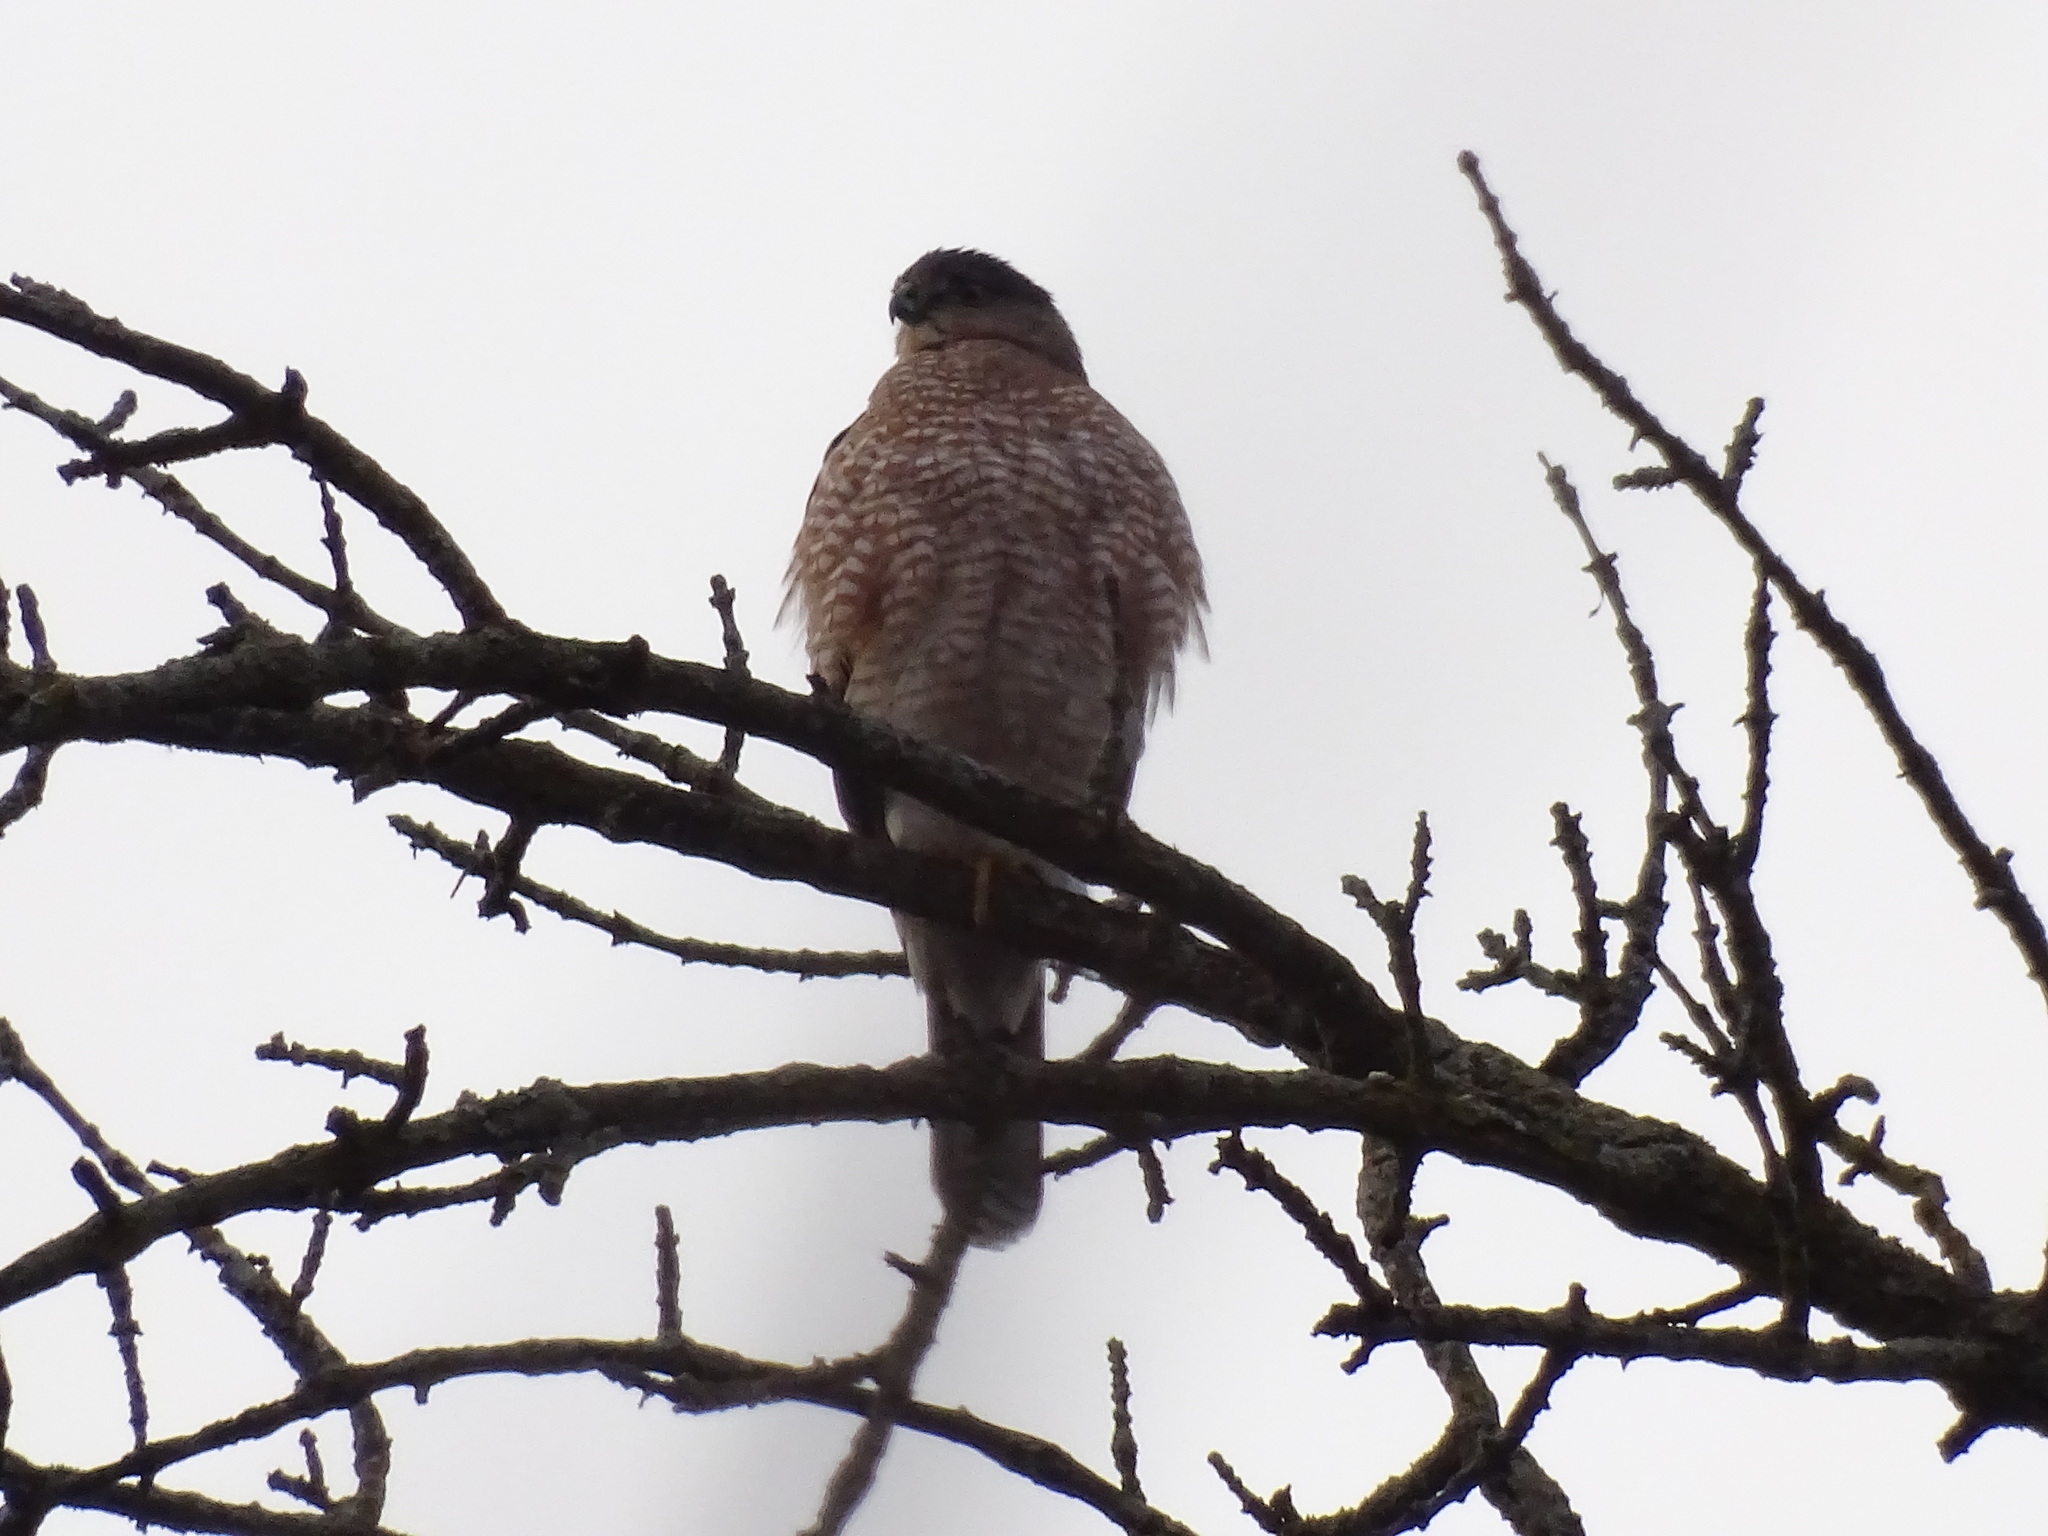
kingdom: Animalia
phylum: Chordata
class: Aves
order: Accipitriformes
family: Accipitridae
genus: Accipiter
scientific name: Accipiter cooperii
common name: Cooper's hawk
